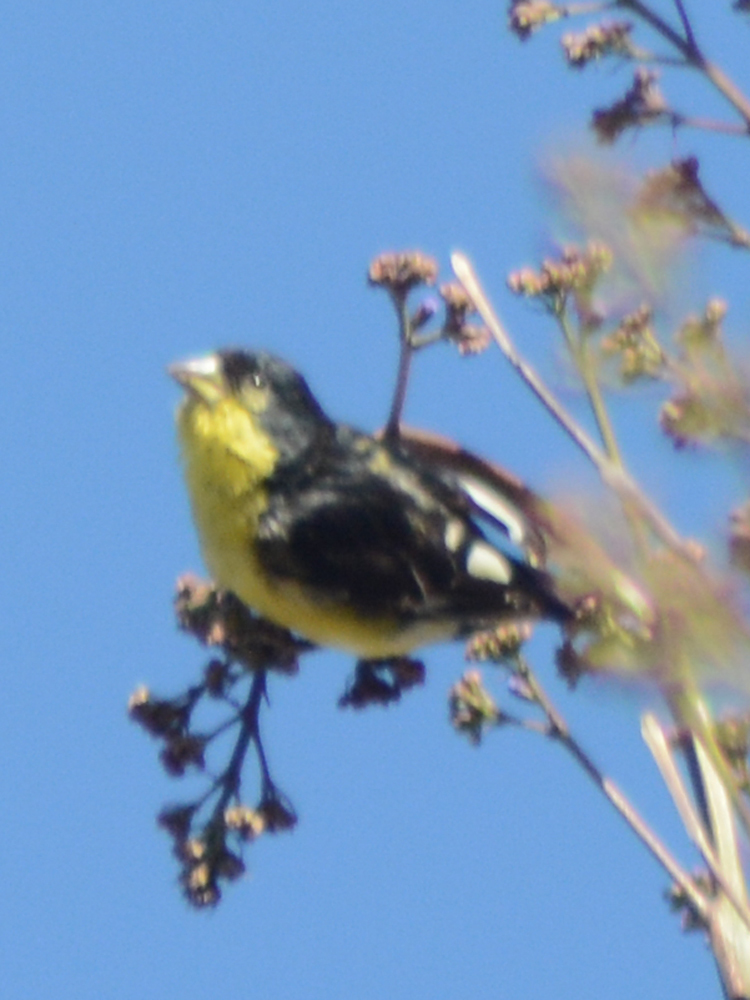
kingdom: Animalia
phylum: Chordata
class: Aves
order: Passeriformes
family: Fringillidae
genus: Spinus
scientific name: Spinus psaltria
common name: Lesser goldfinch
